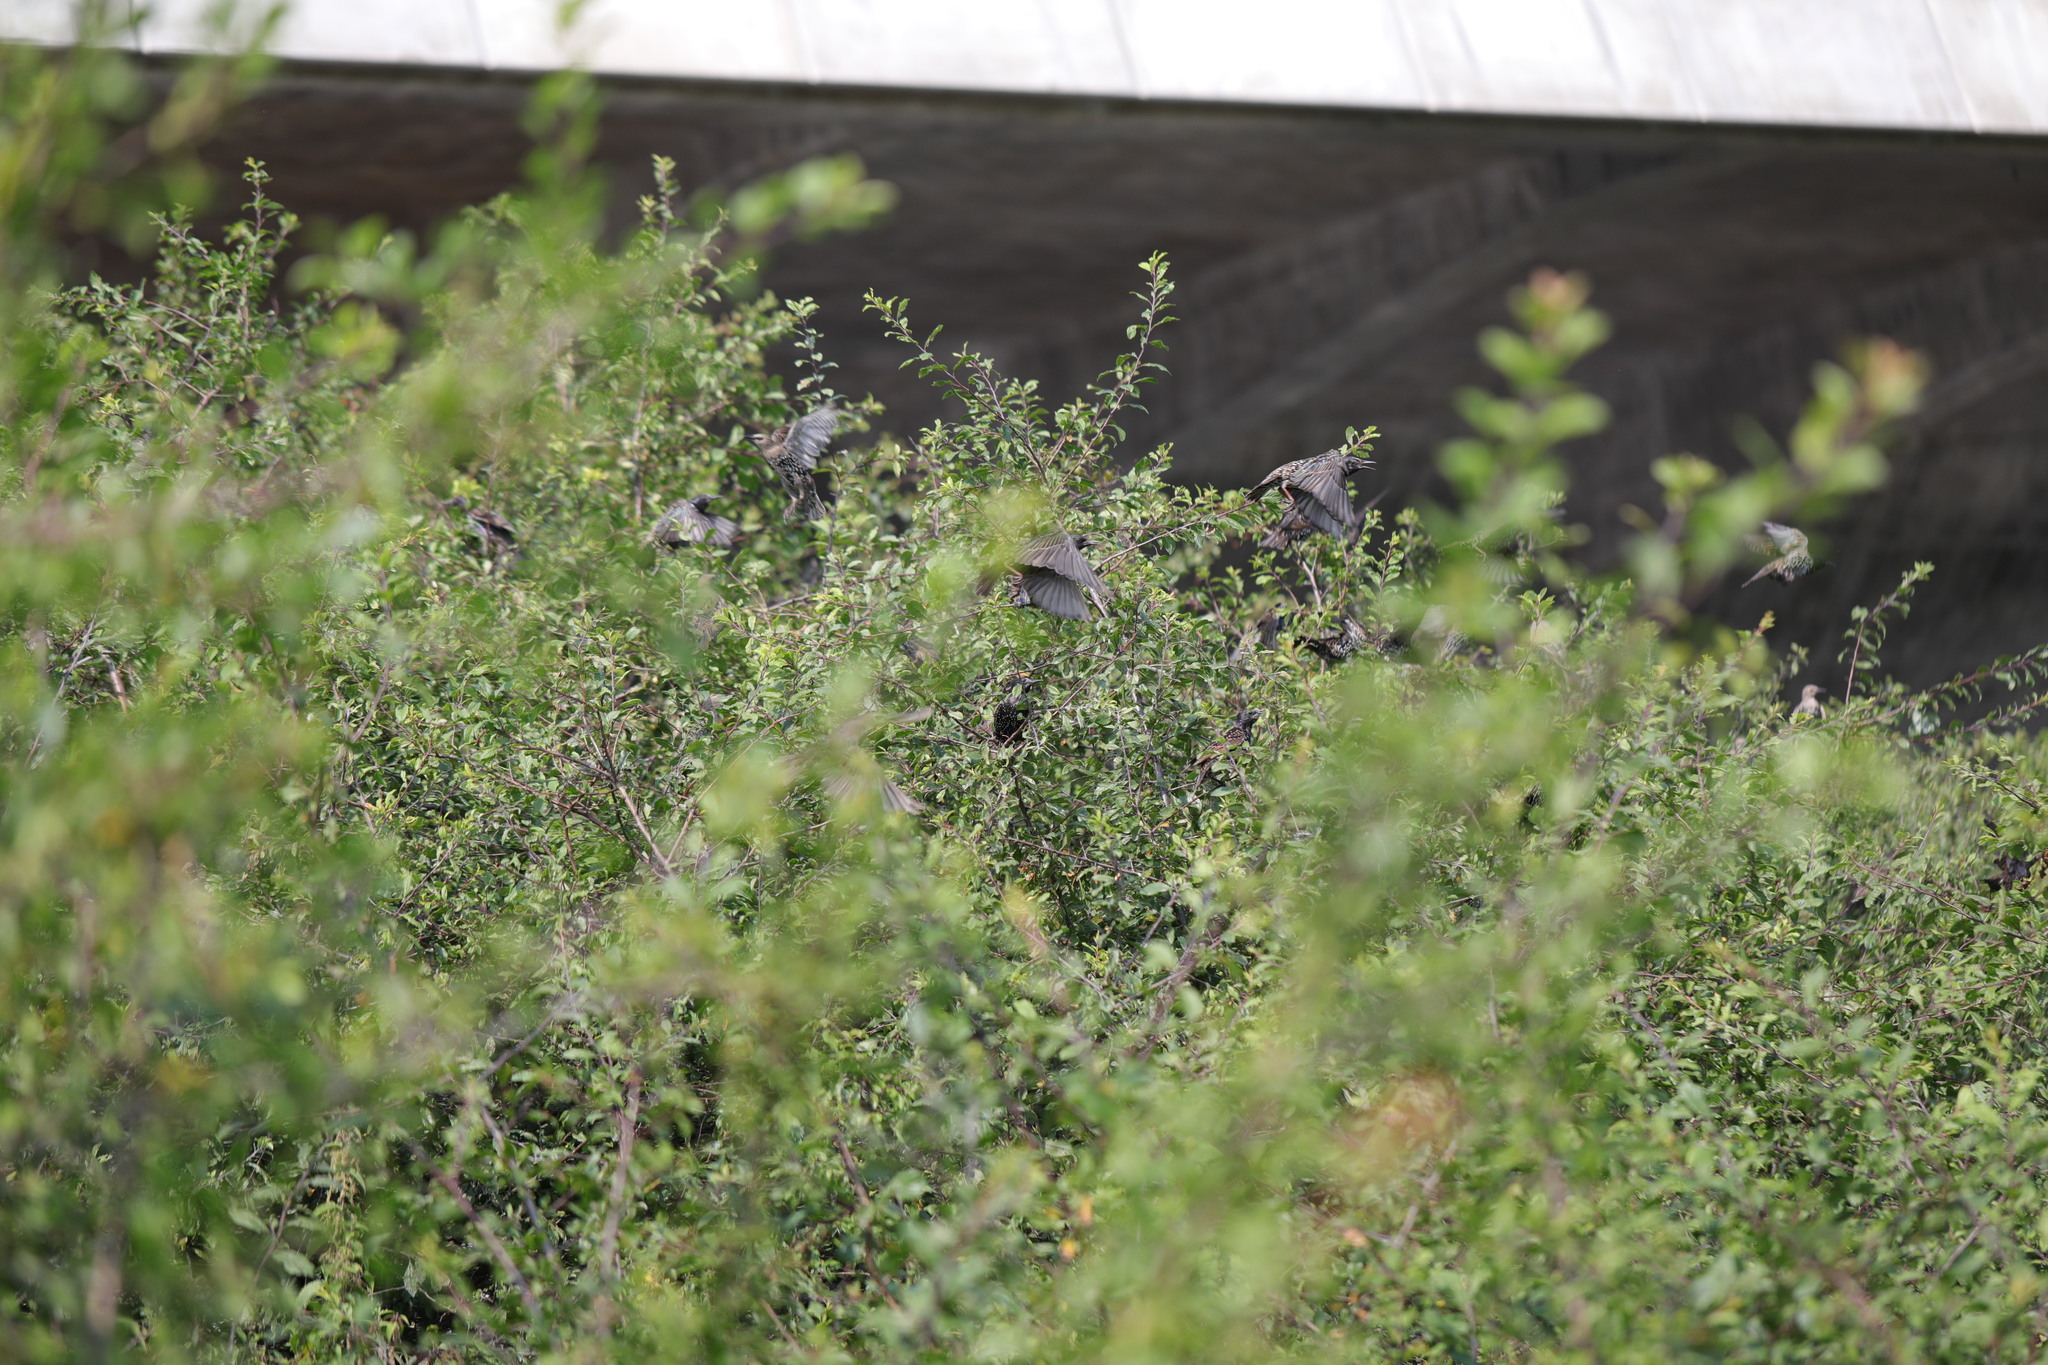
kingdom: Animalia
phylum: Chordata
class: Aves
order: Passeriformes
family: Sturnidae
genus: Sturnus
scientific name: Sturnus vulgaris
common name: Common starling
